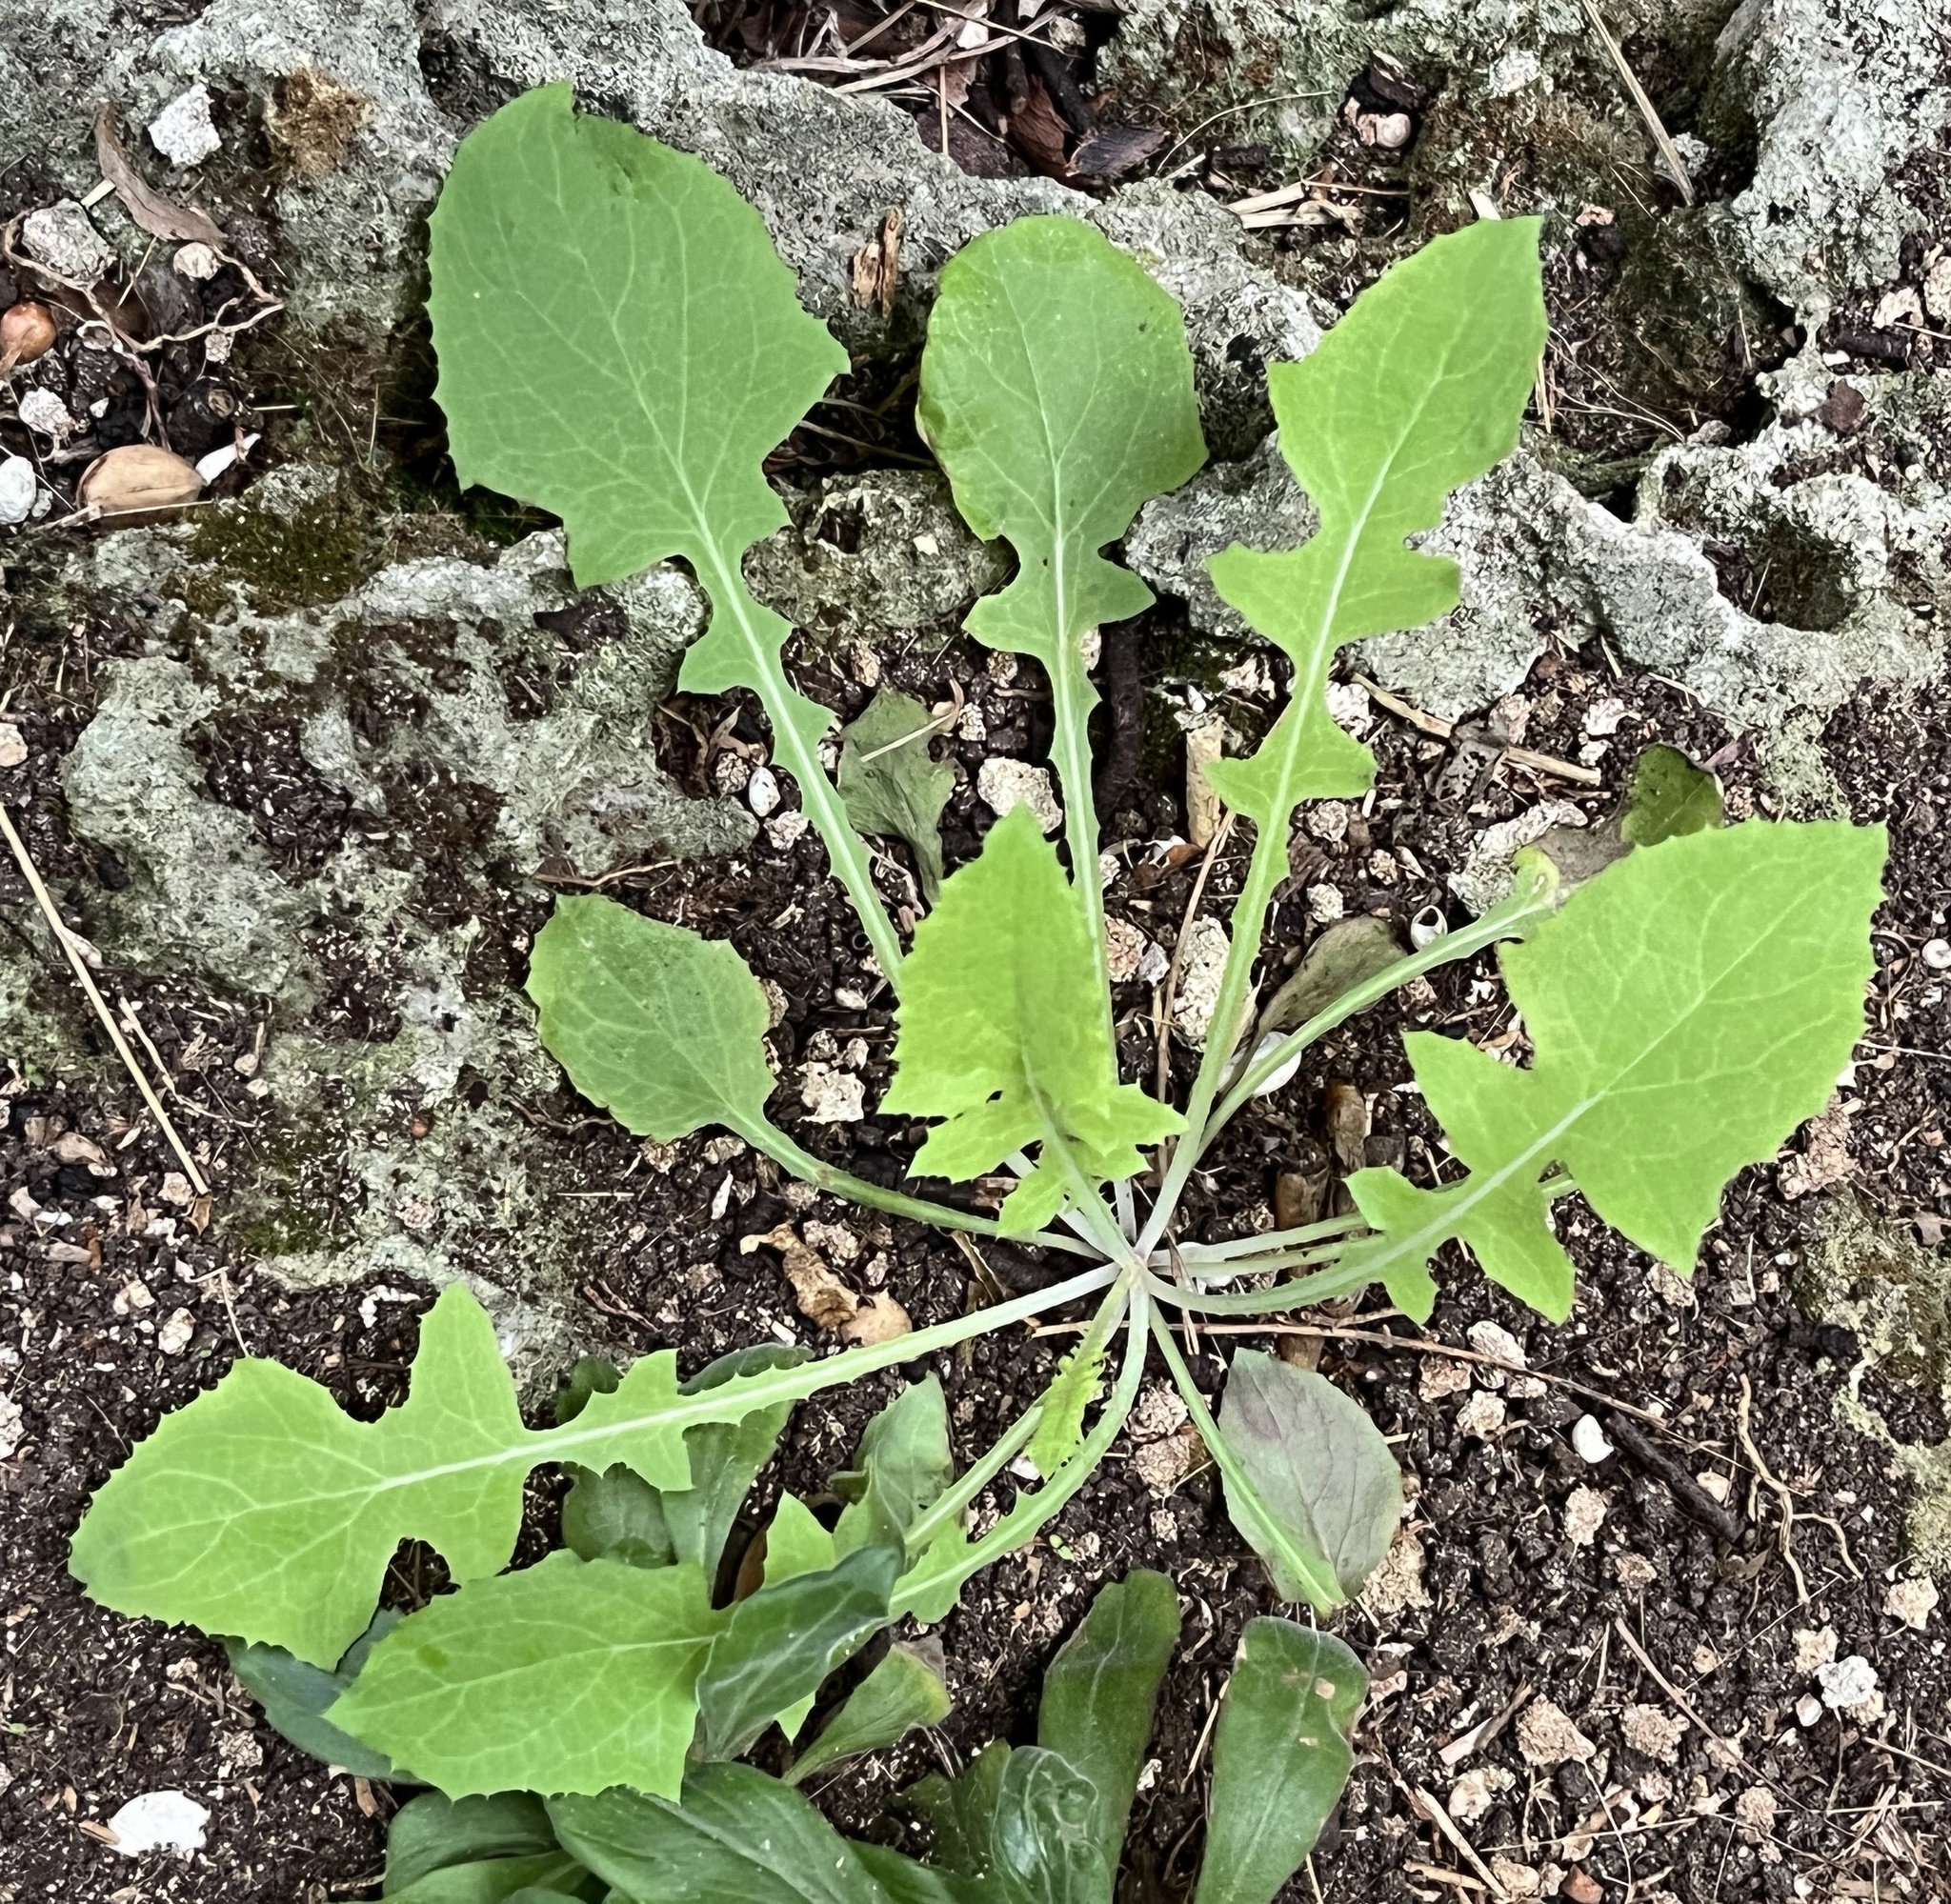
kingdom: Plantae
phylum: Tracheophyta
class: Magnoliopsida
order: Asterales
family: Asteraceae
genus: Sonchus
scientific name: Sonchus oleraceus
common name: Common sowthistle
